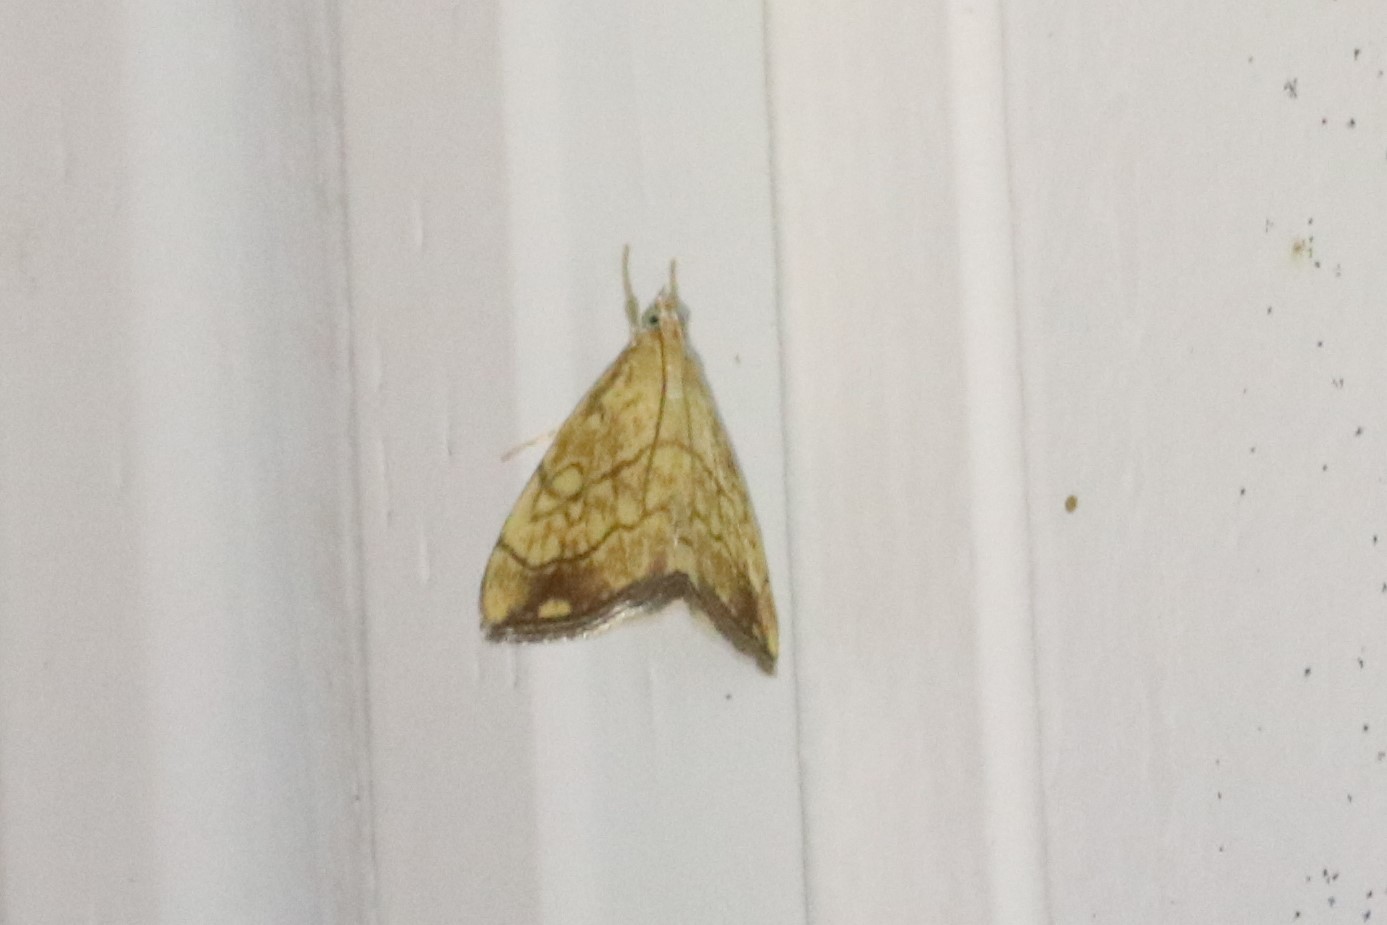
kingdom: Animalia
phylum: Arthropoda
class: Insecta
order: Lepidoptera
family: Crambidae
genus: Evergestis
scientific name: Evergestis pallidata
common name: Chequered pearl
